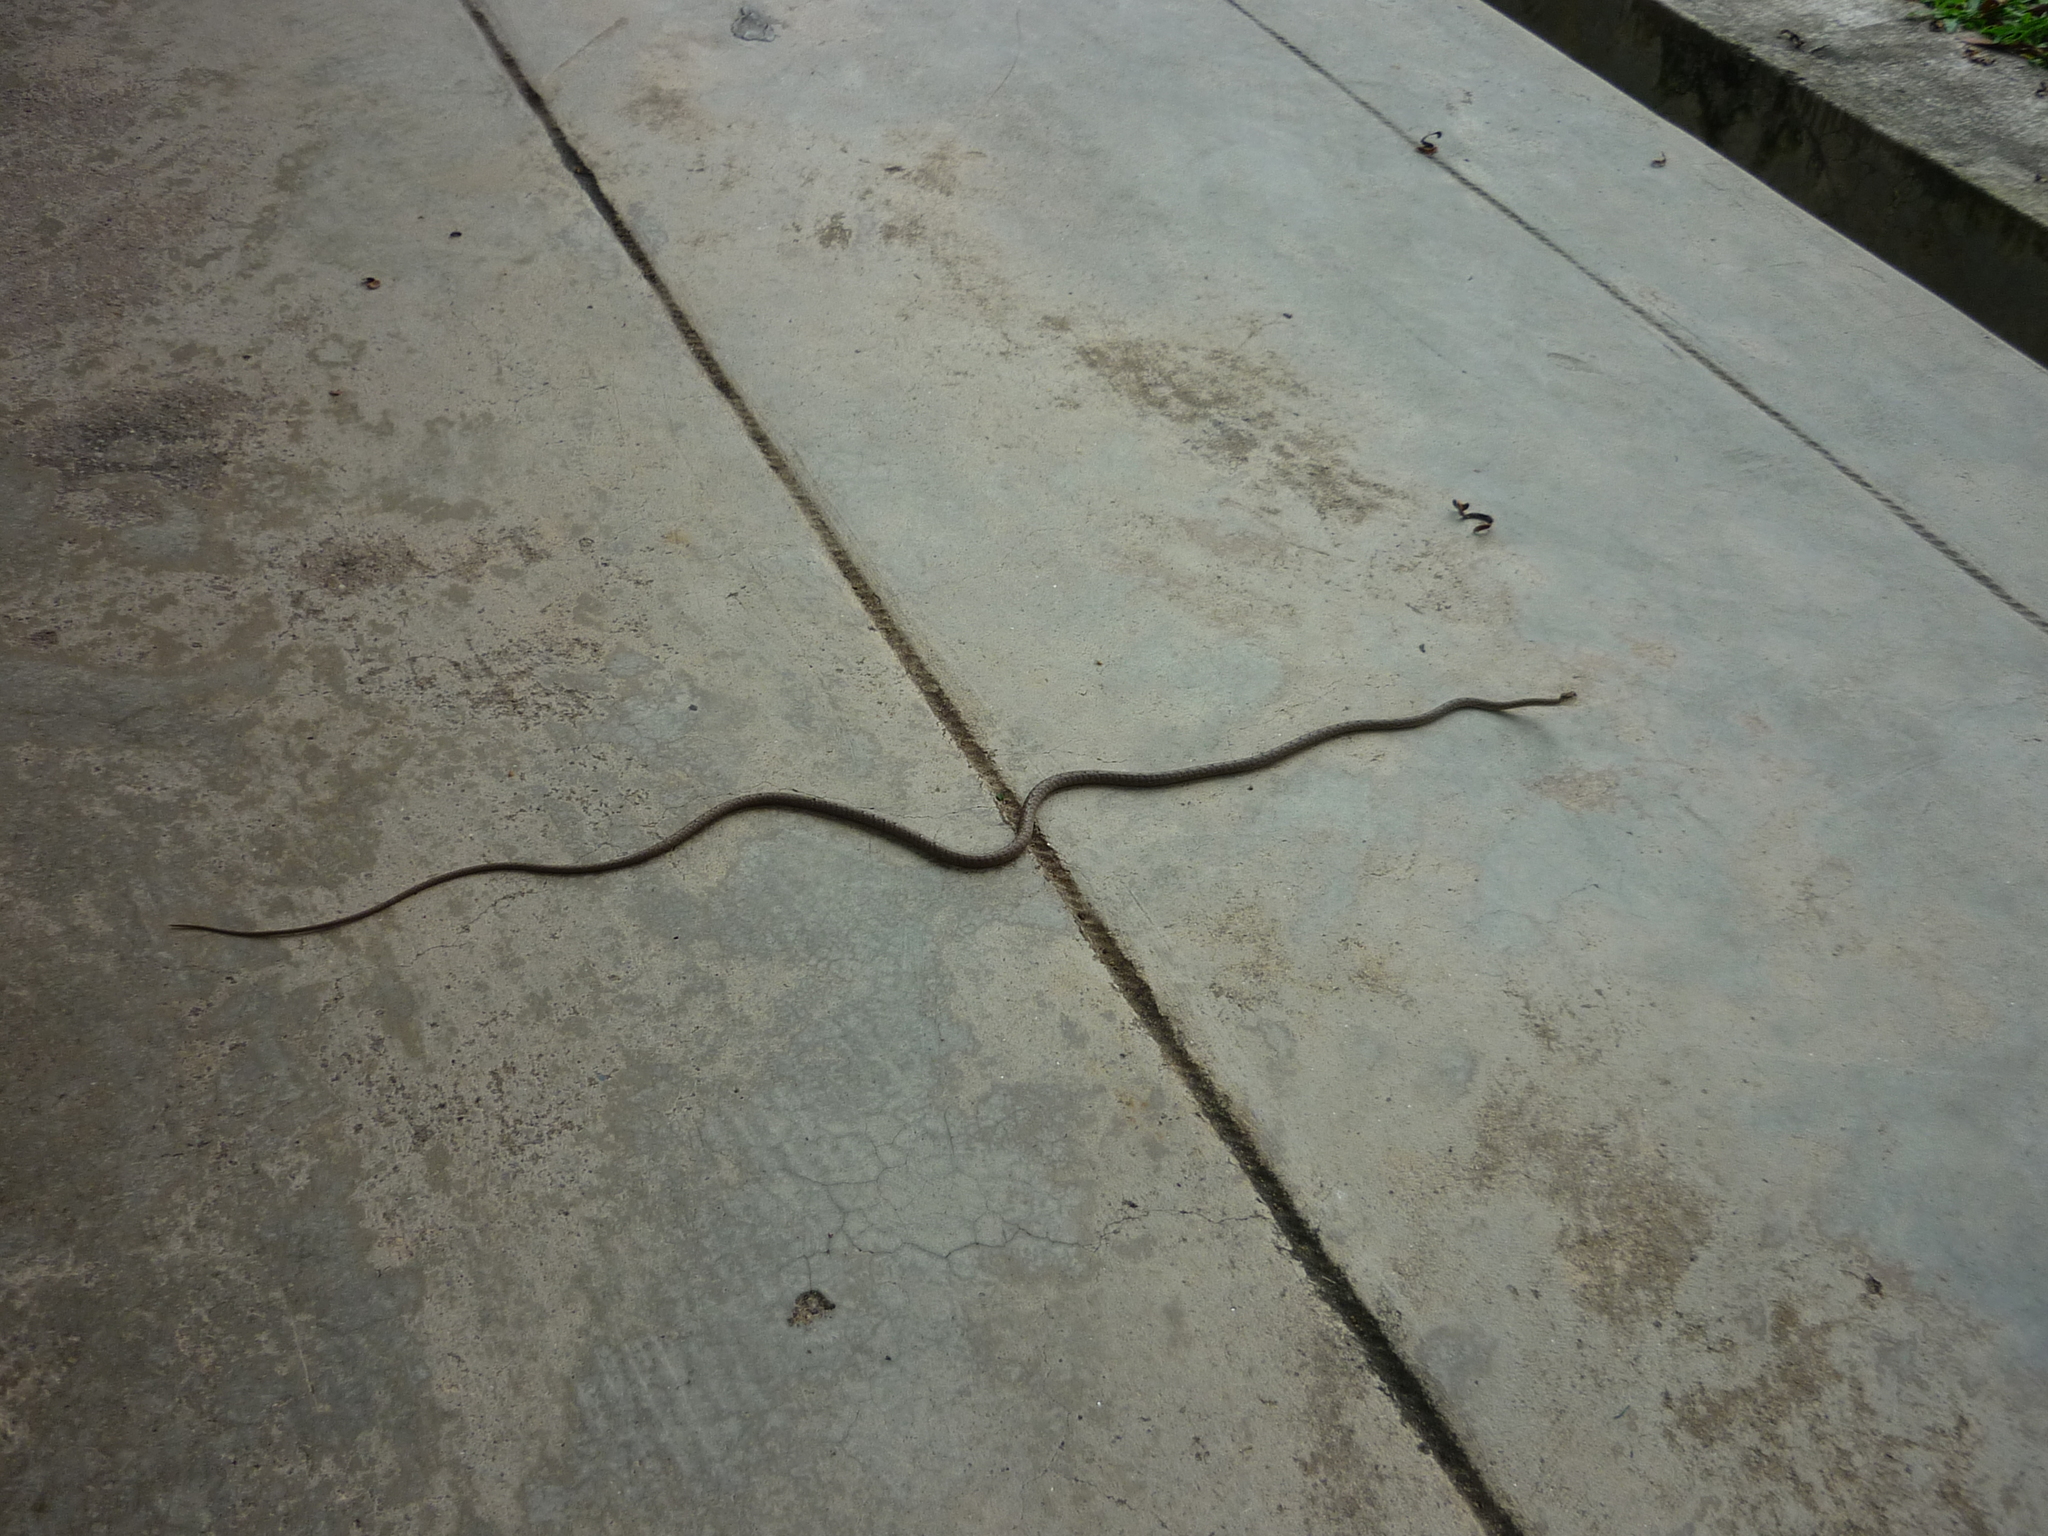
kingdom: Animalia
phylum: Chordata
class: Squamata
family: Colubridae
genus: Dryophiops
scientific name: Dryophiops rubescens
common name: Red whip snake
